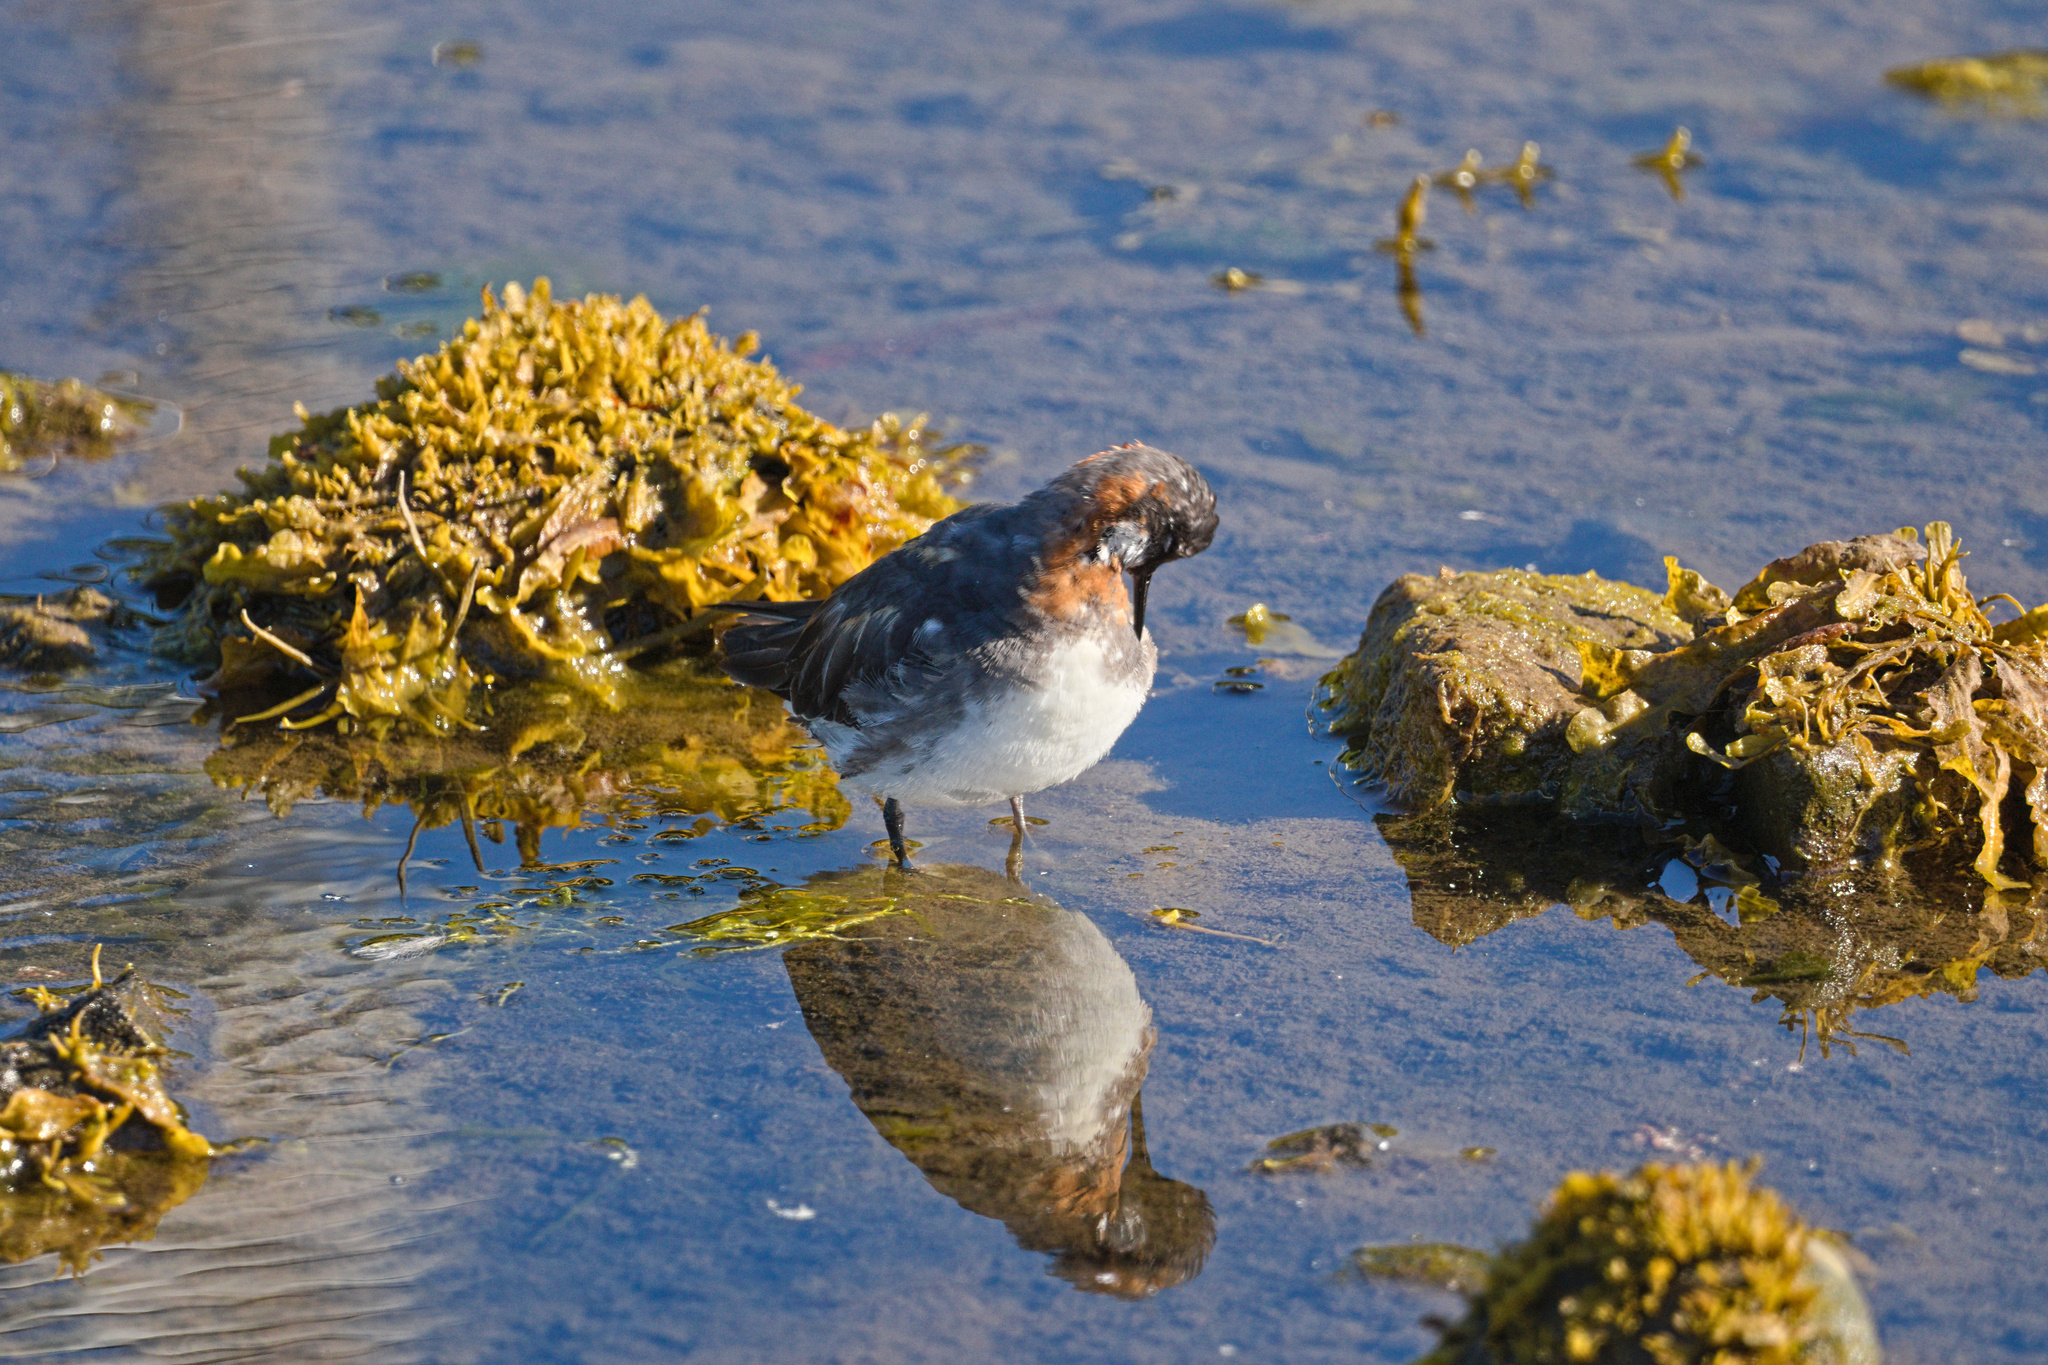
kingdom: Animalia
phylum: Chordata
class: Aves
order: Charadriiformes
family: Scolopacidae
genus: Phalaropus
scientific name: Phalaropus lobatus
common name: Red-necked phalarope
